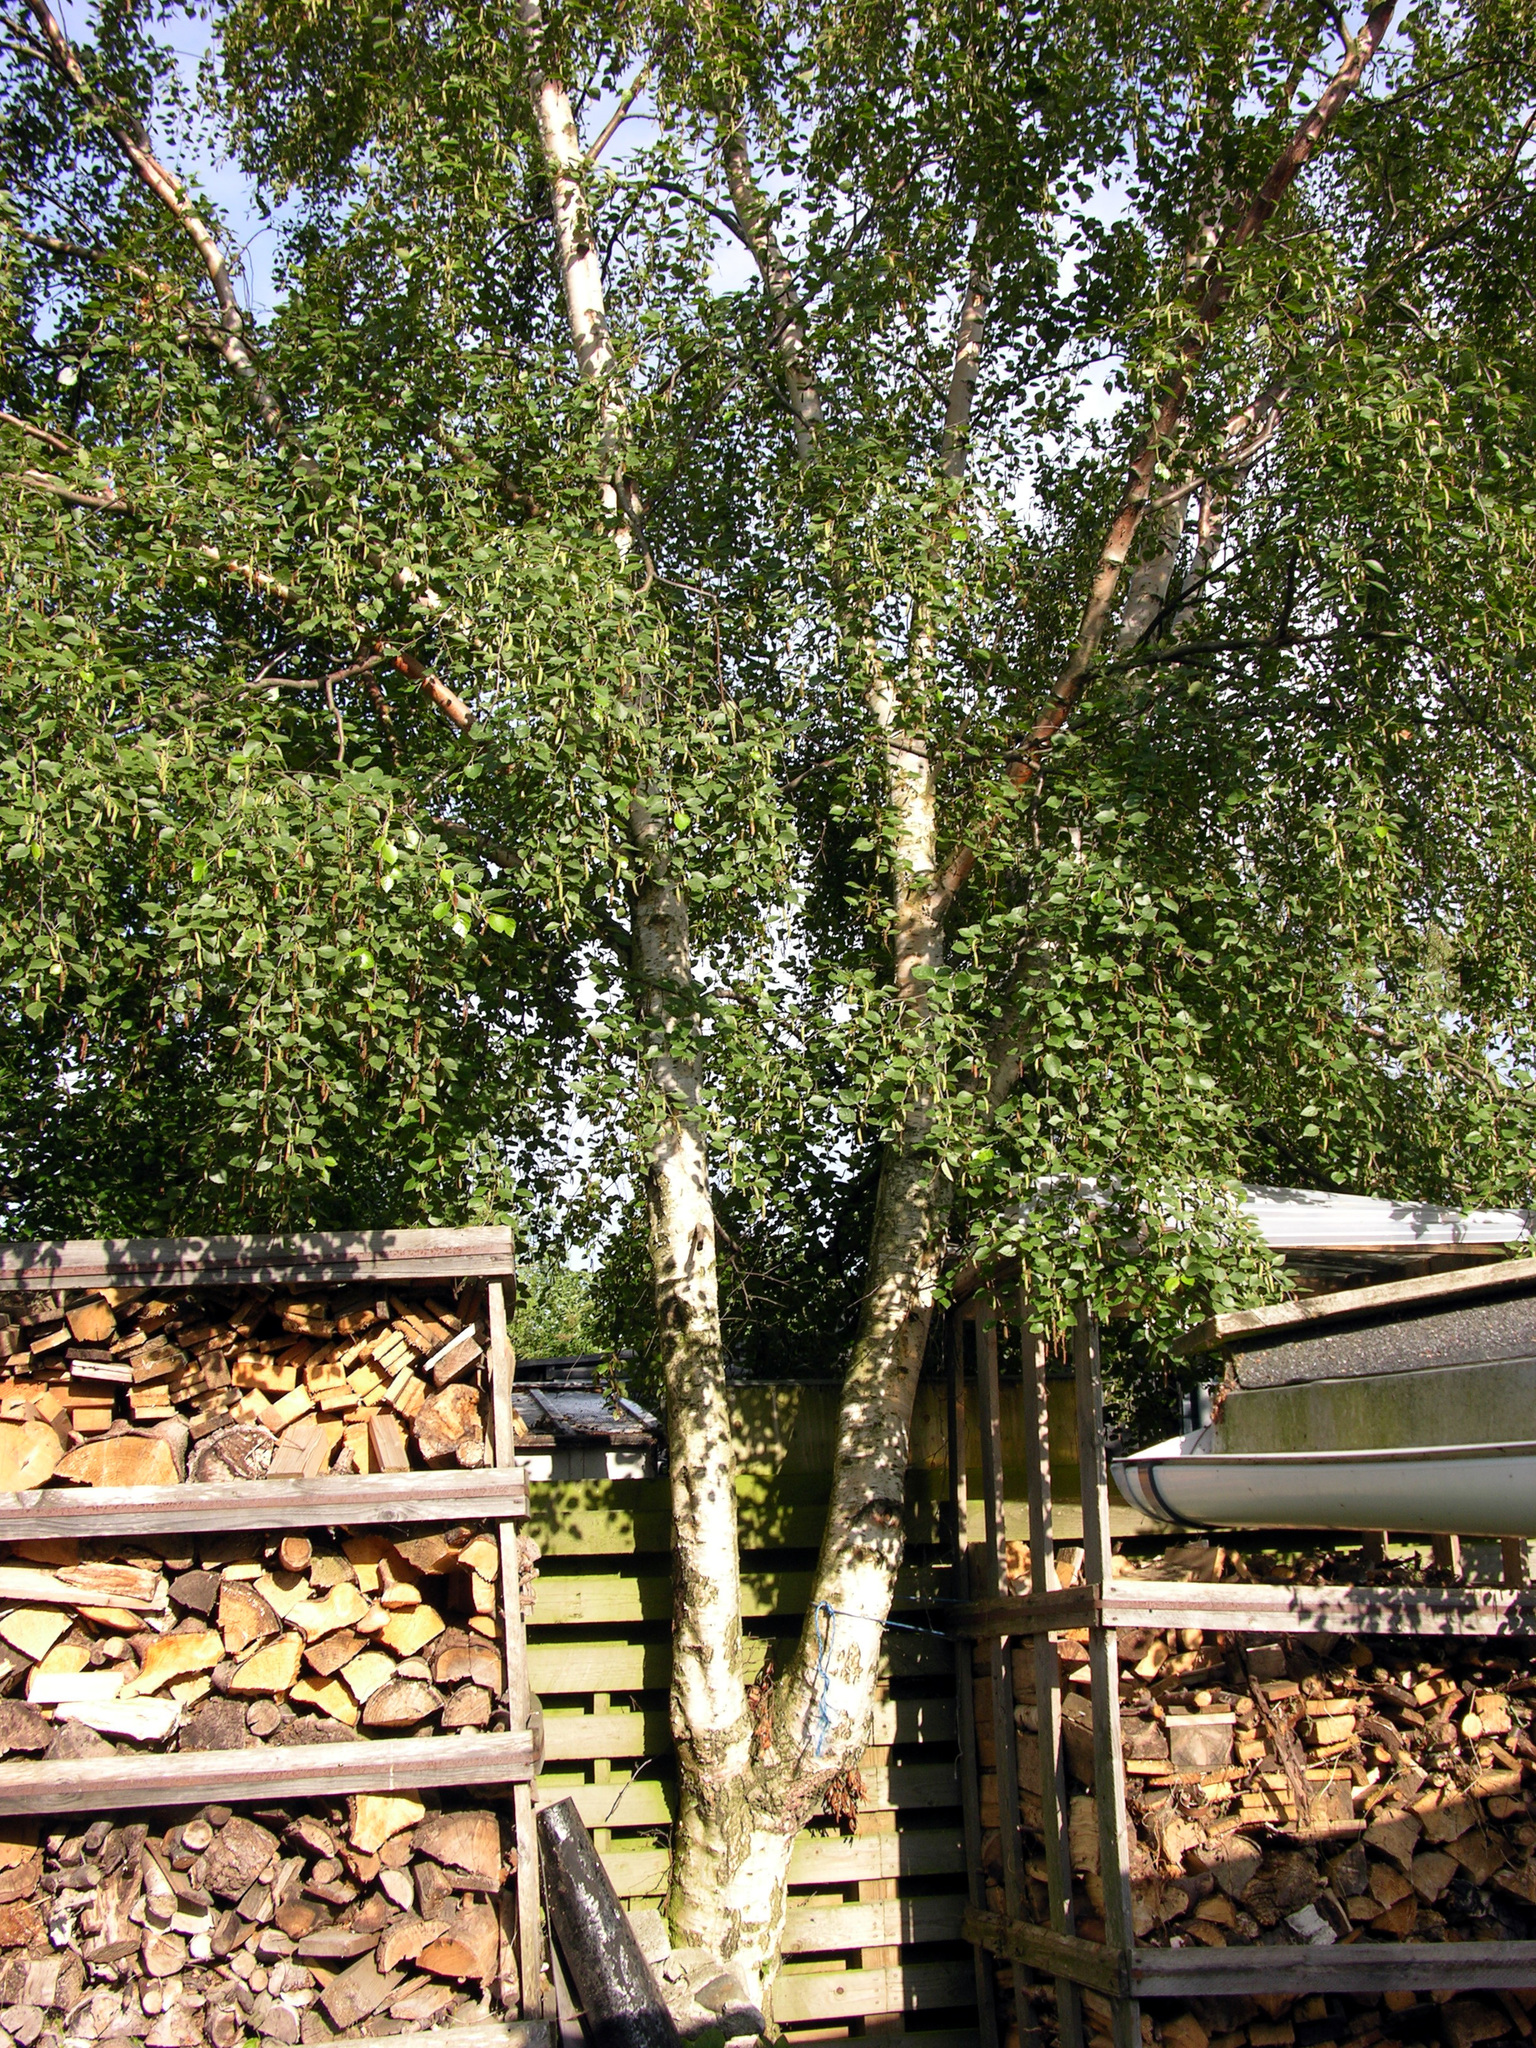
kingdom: Plantae
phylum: Tracheophyta
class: Magnoliopsida
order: Fagales
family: Betulaceae
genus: Betula
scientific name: Betula pendula
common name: Silver birch
